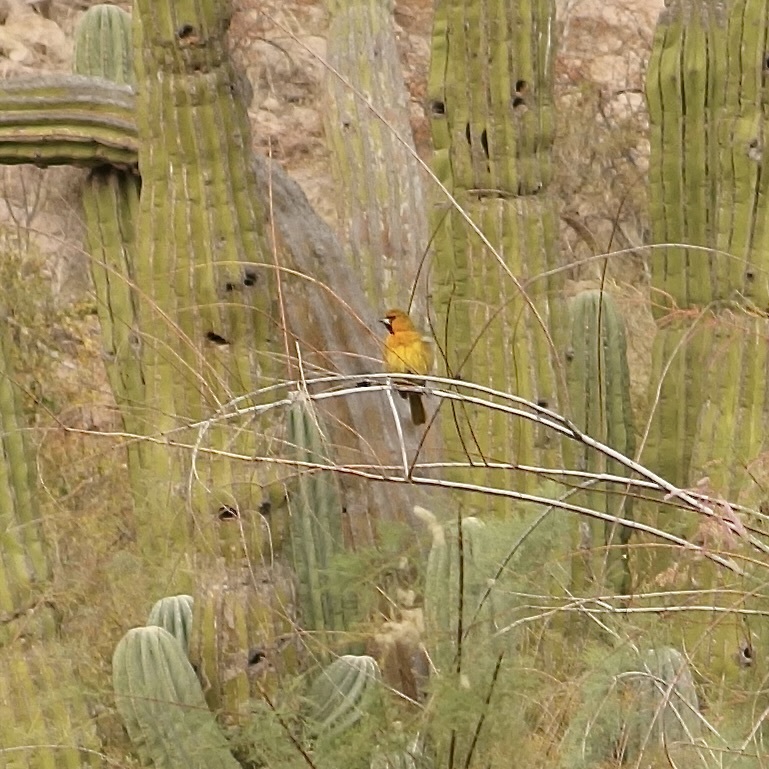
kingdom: Animalia
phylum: Chordata
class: Aves
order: Passeriformes
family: Icteridae
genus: Icterus
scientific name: Icterus pustulatus
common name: Streak-backed oriole
